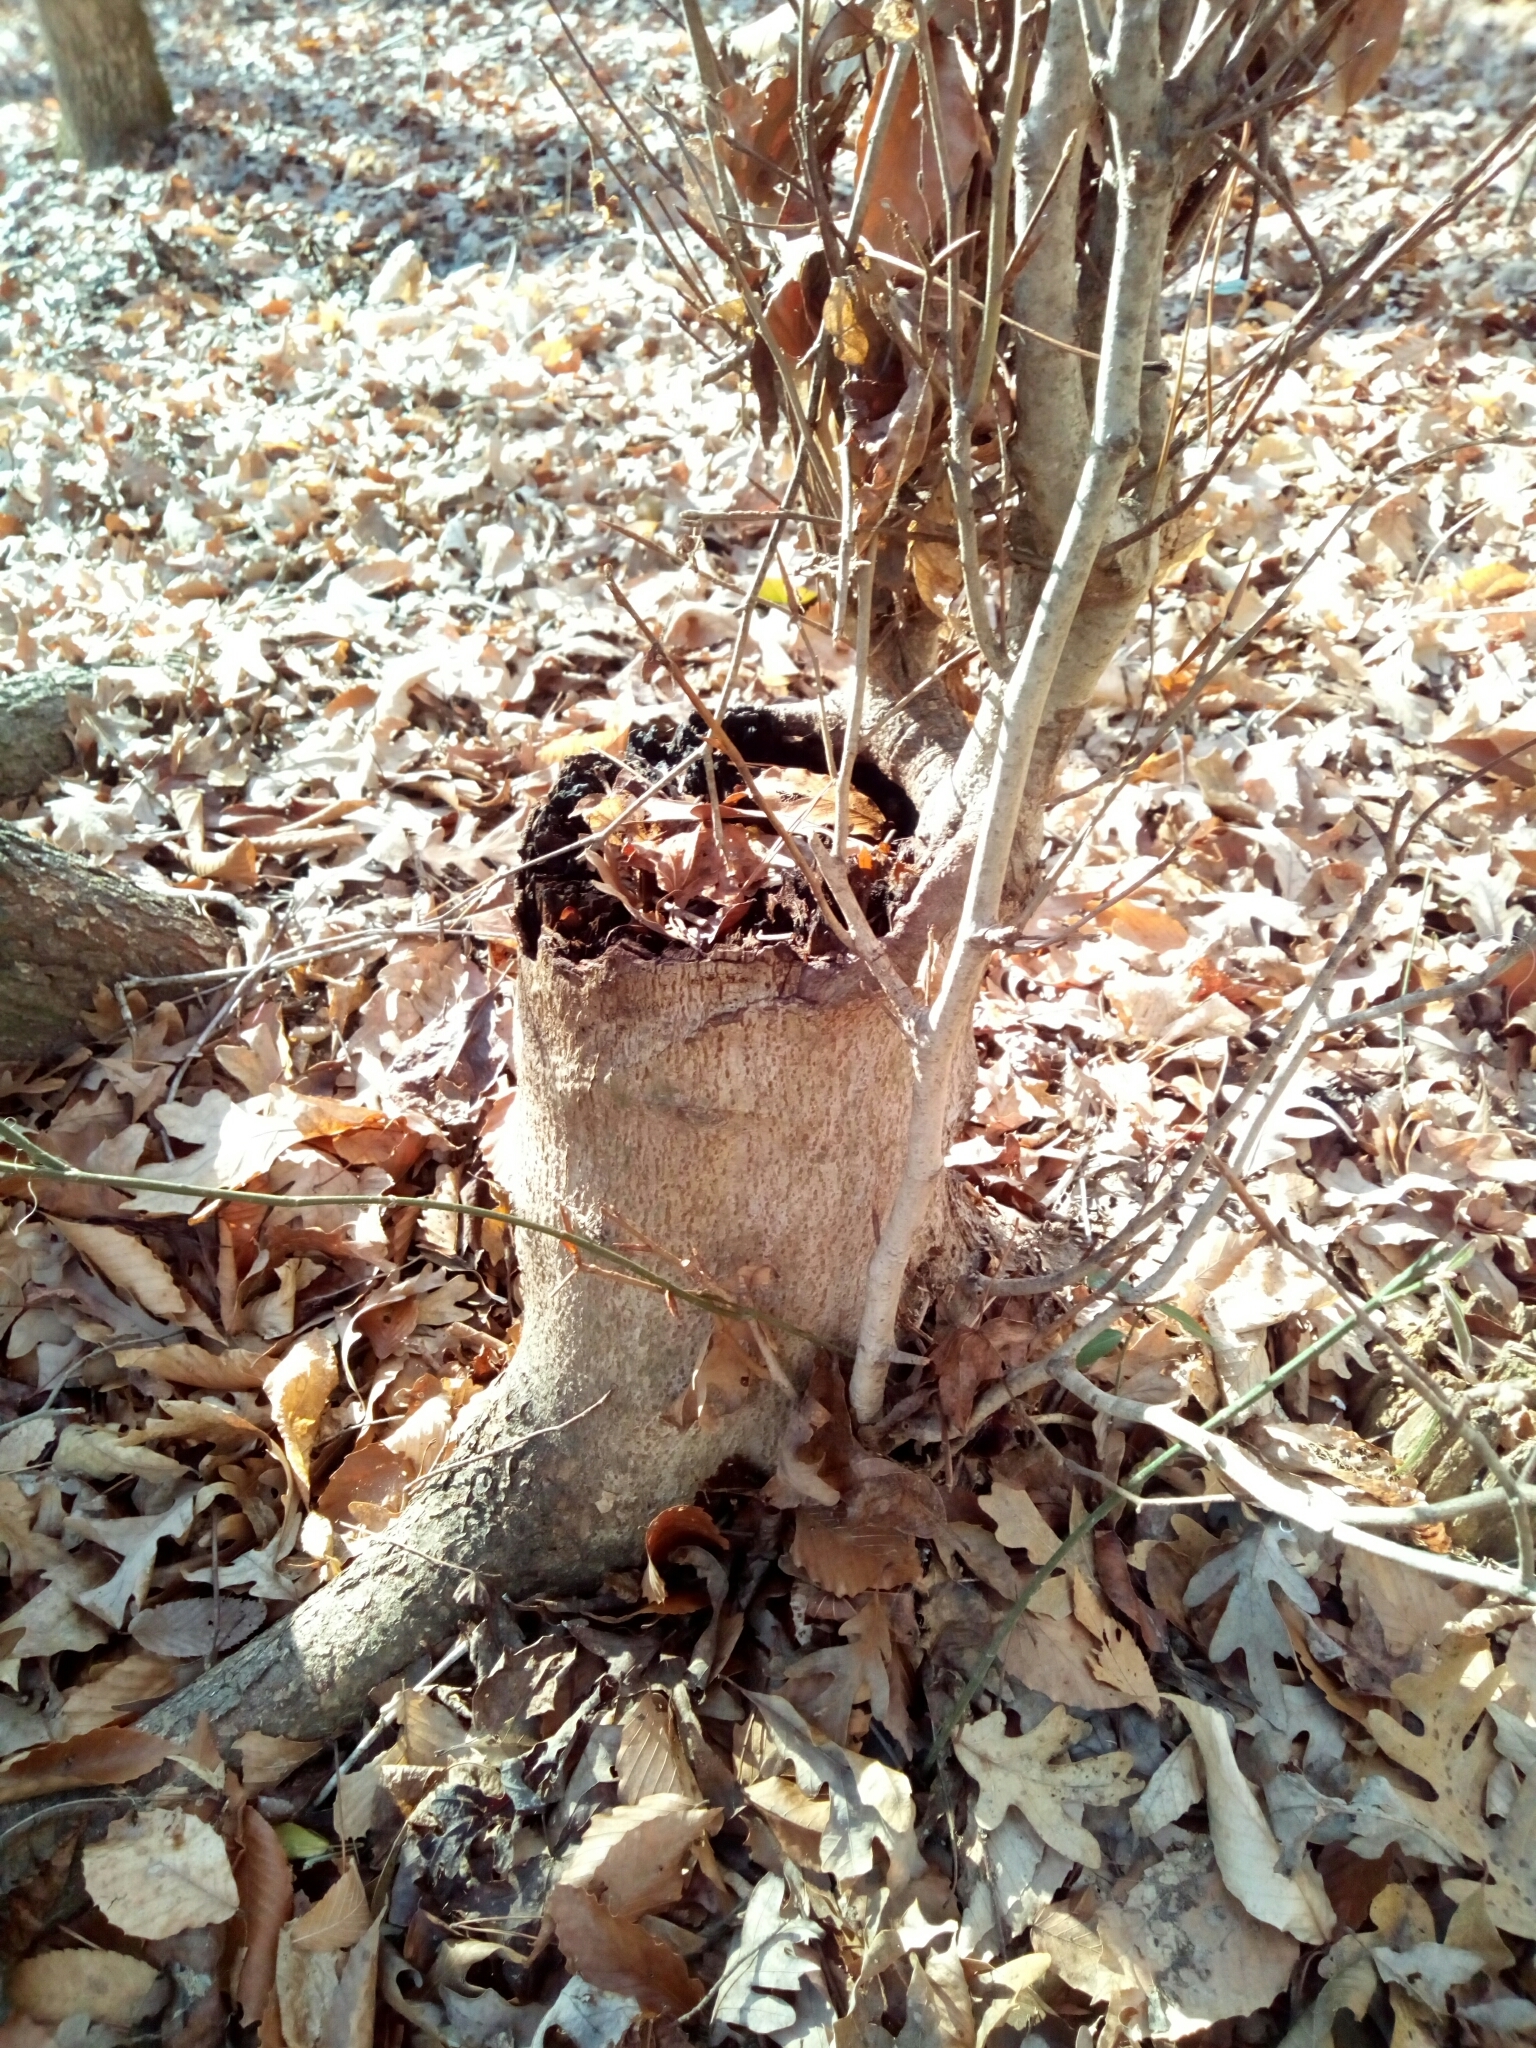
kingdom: Plantae
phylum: Tracheophyta
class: Magnoliopsida
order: Fagales
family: Fagaceae
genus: Fagus
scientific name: Fagus grandifolia
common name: American beech
